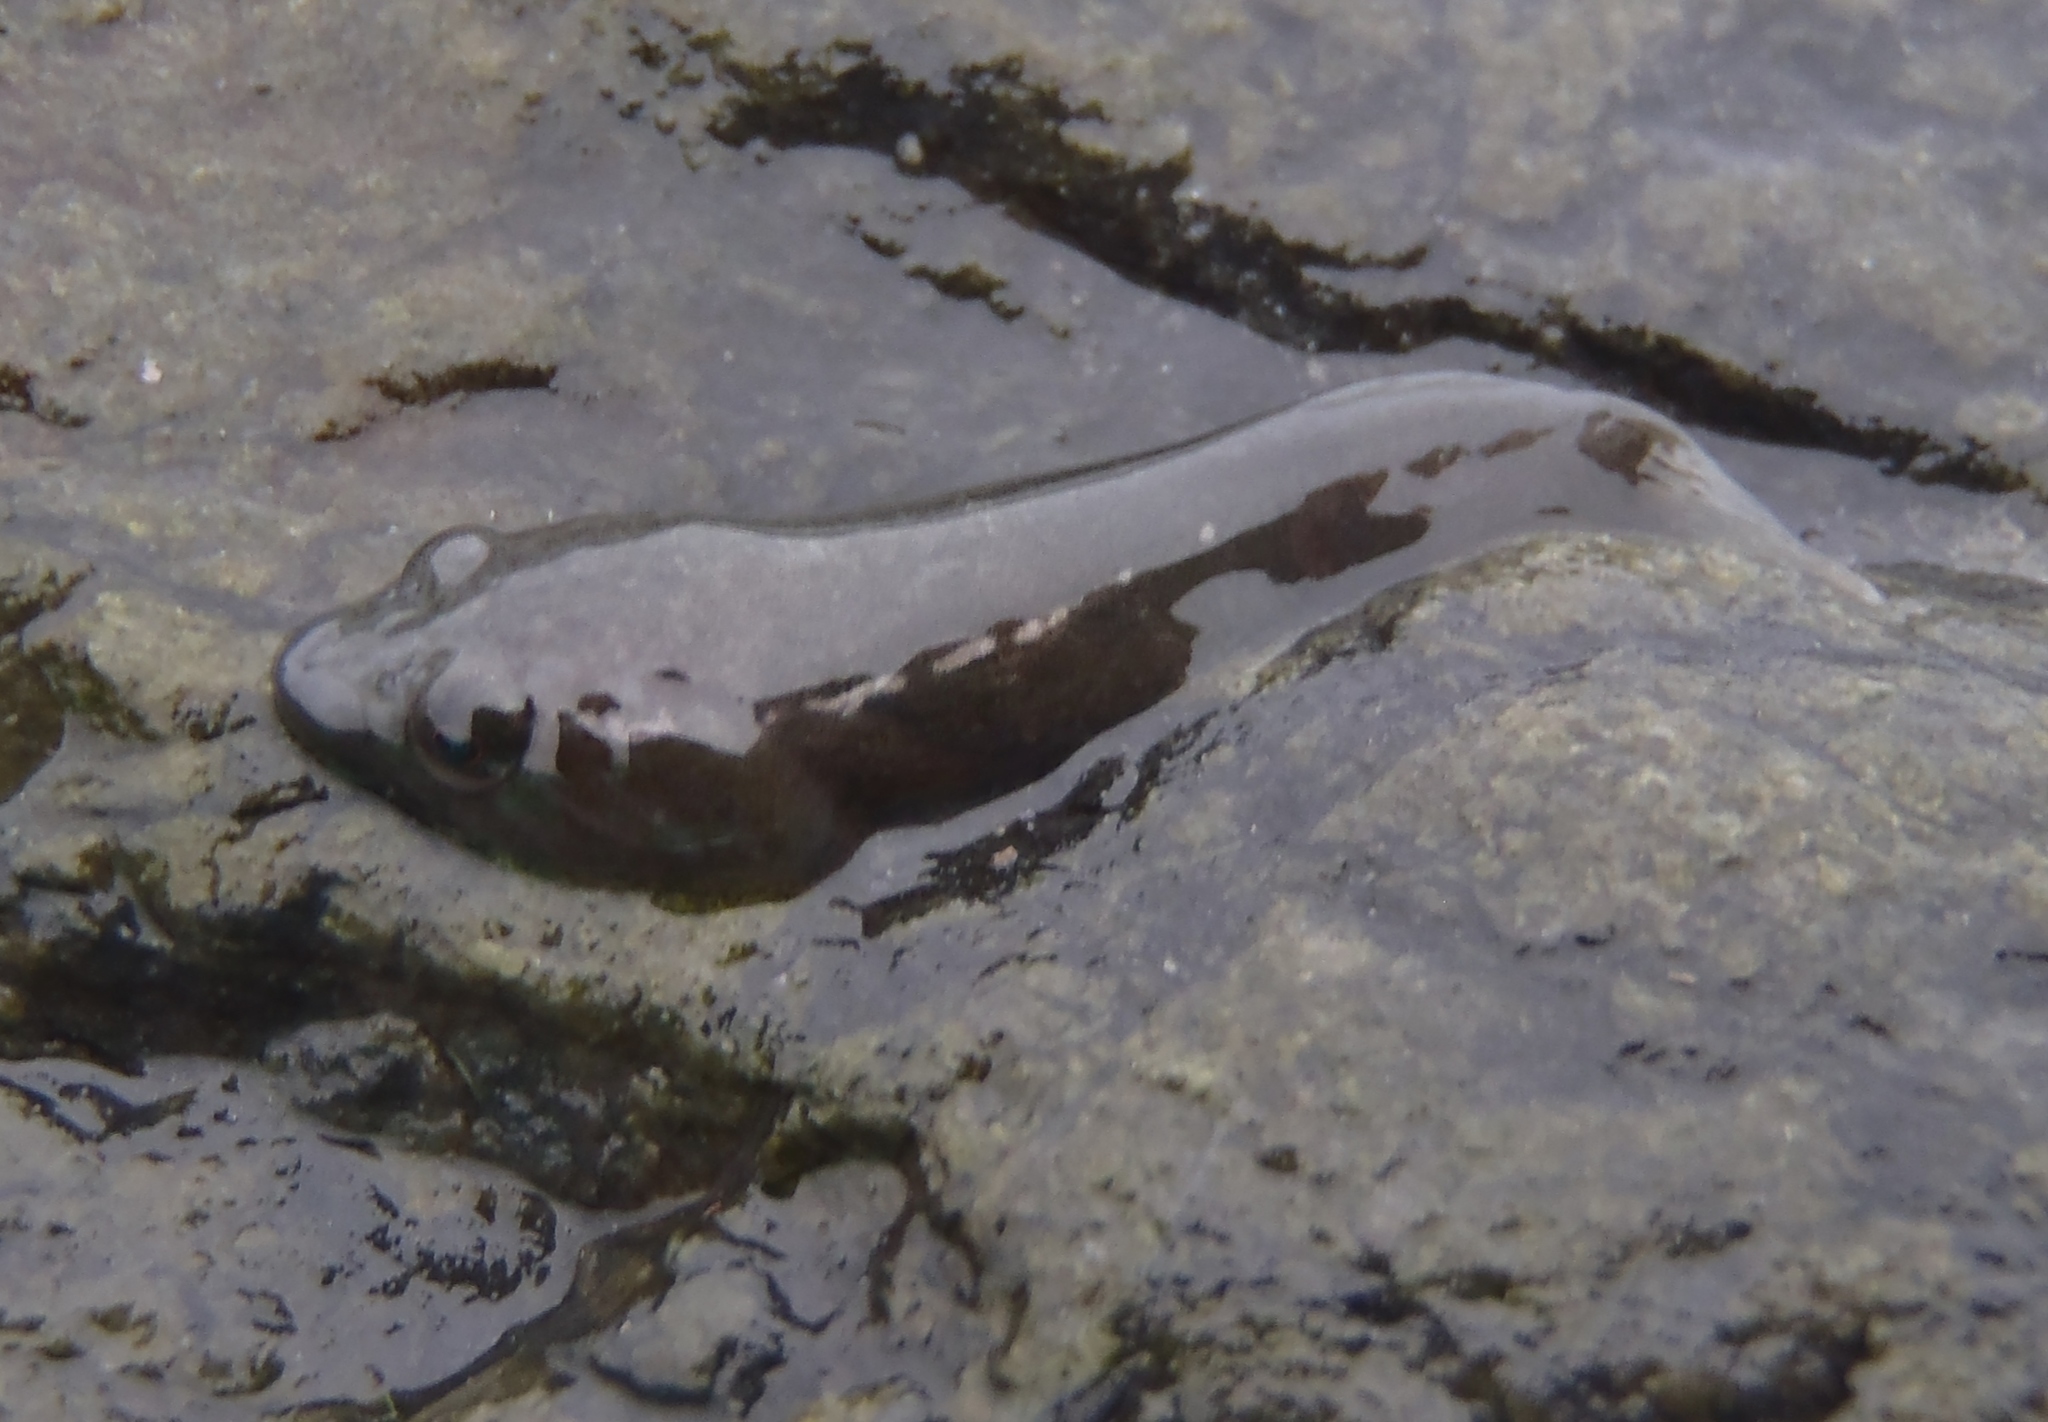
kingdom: Animalia
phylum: Chordata
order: Gobiesociformes
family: Gobiesocidae
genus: Trachelochismus
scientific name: Trachelochismus
